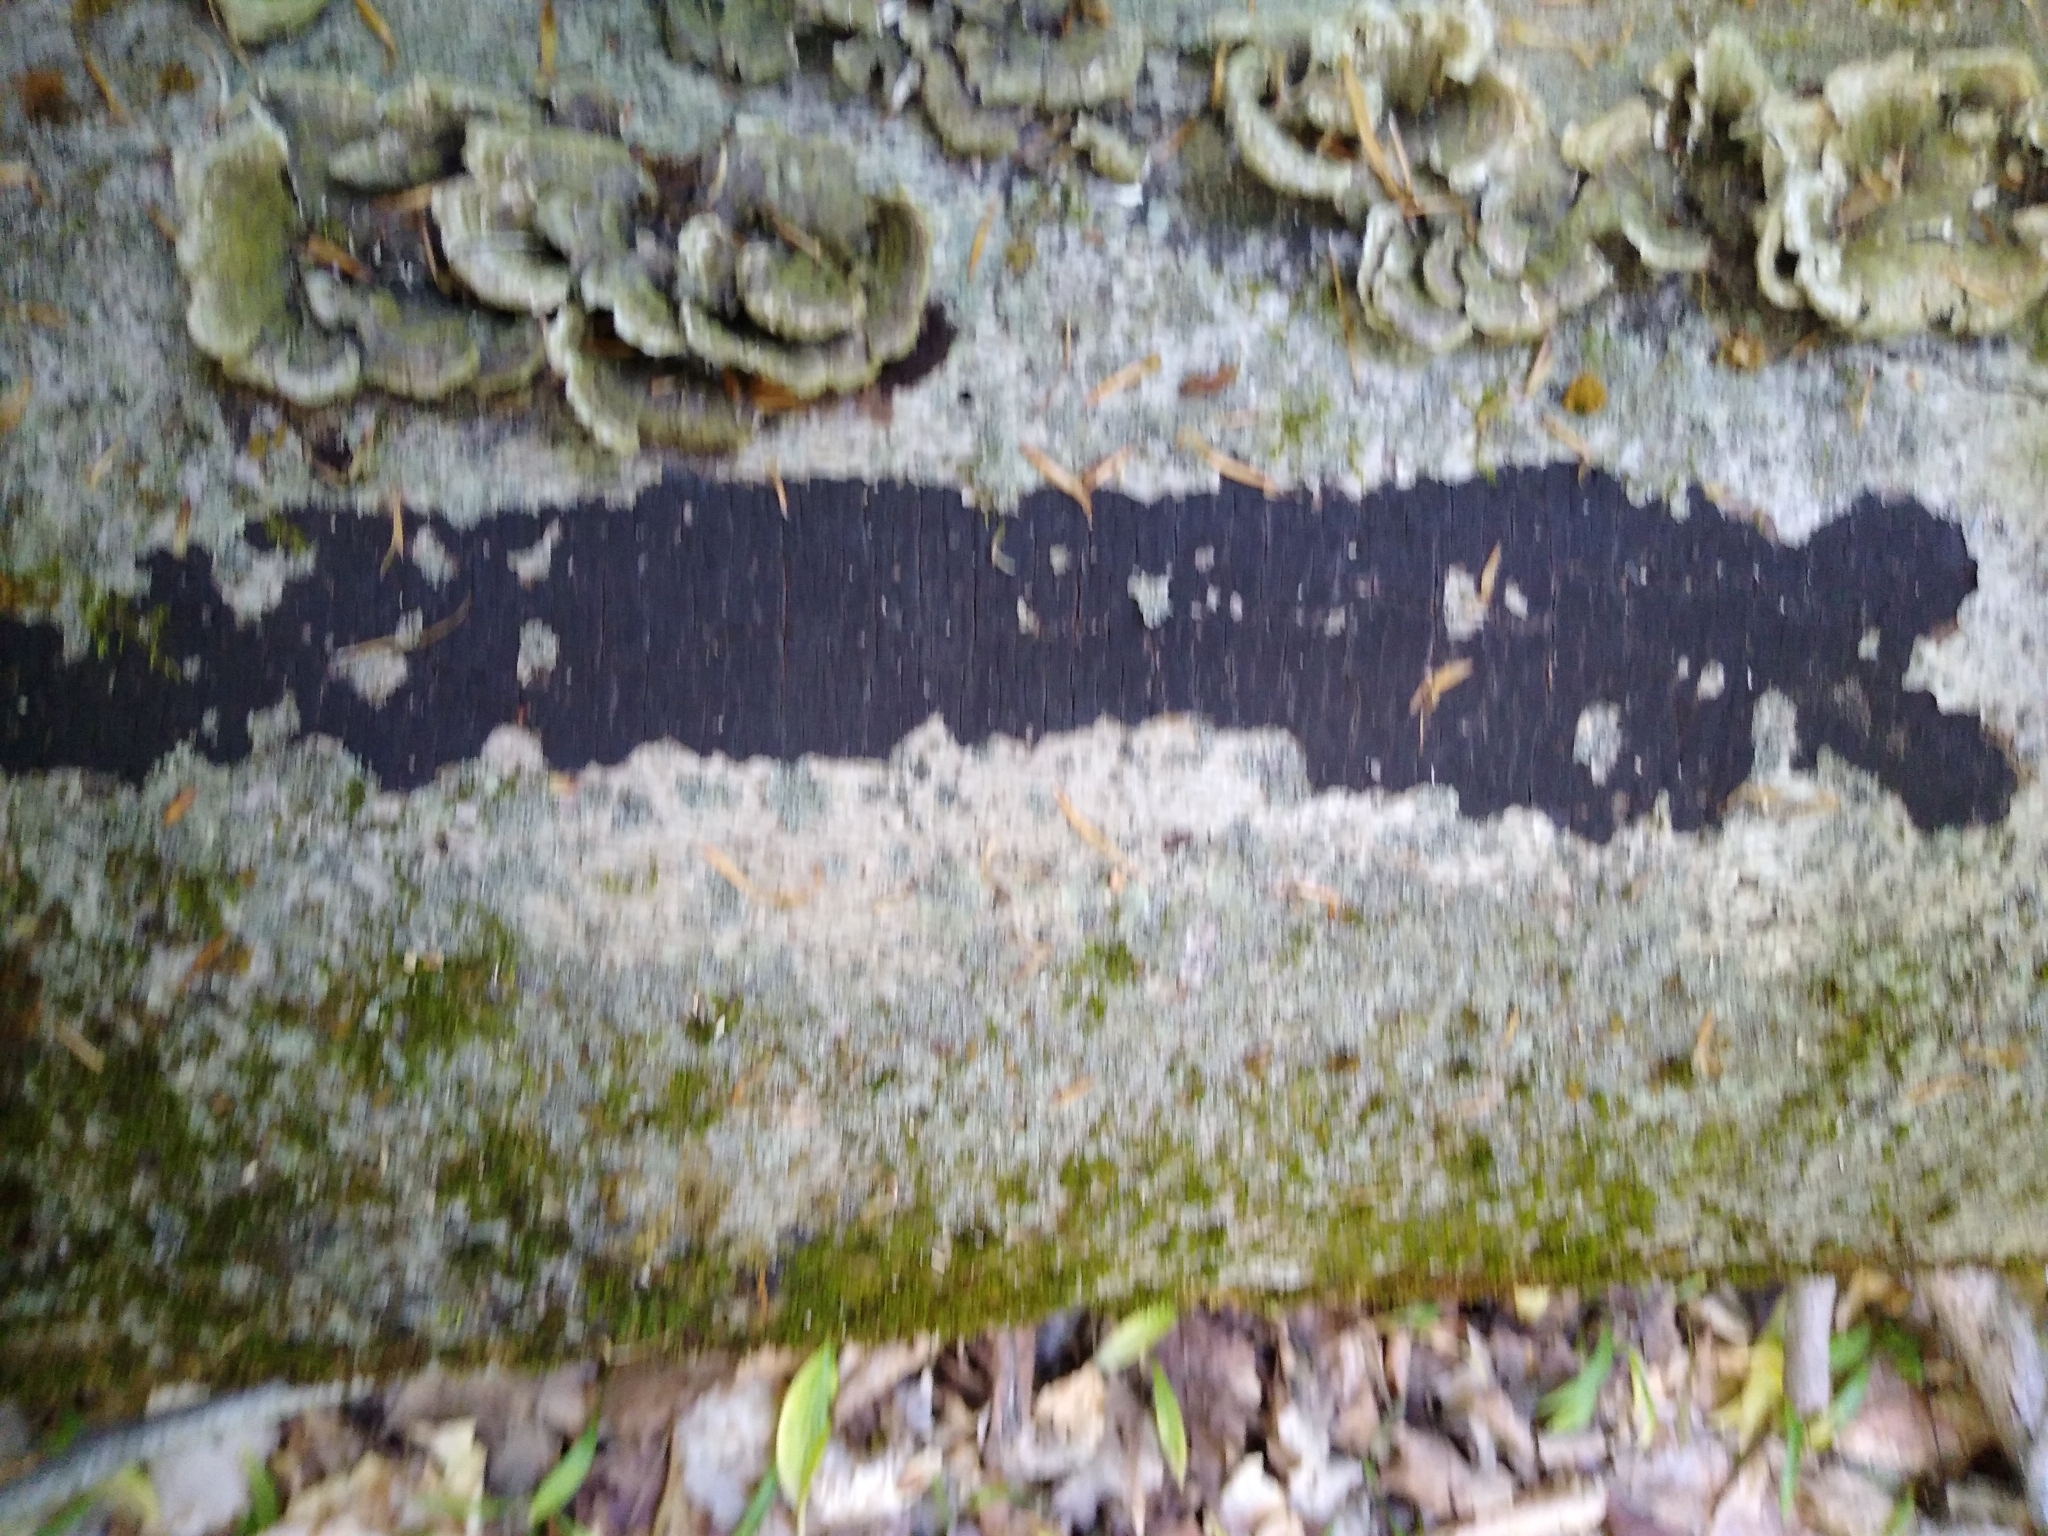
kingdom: Fungi
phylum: Ascomycota
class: Sordariomycetes
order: Xylariales
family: Diatrypaceae
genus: Eutypa
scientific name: Eutypa spinosa
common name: Spiral tarcrust
